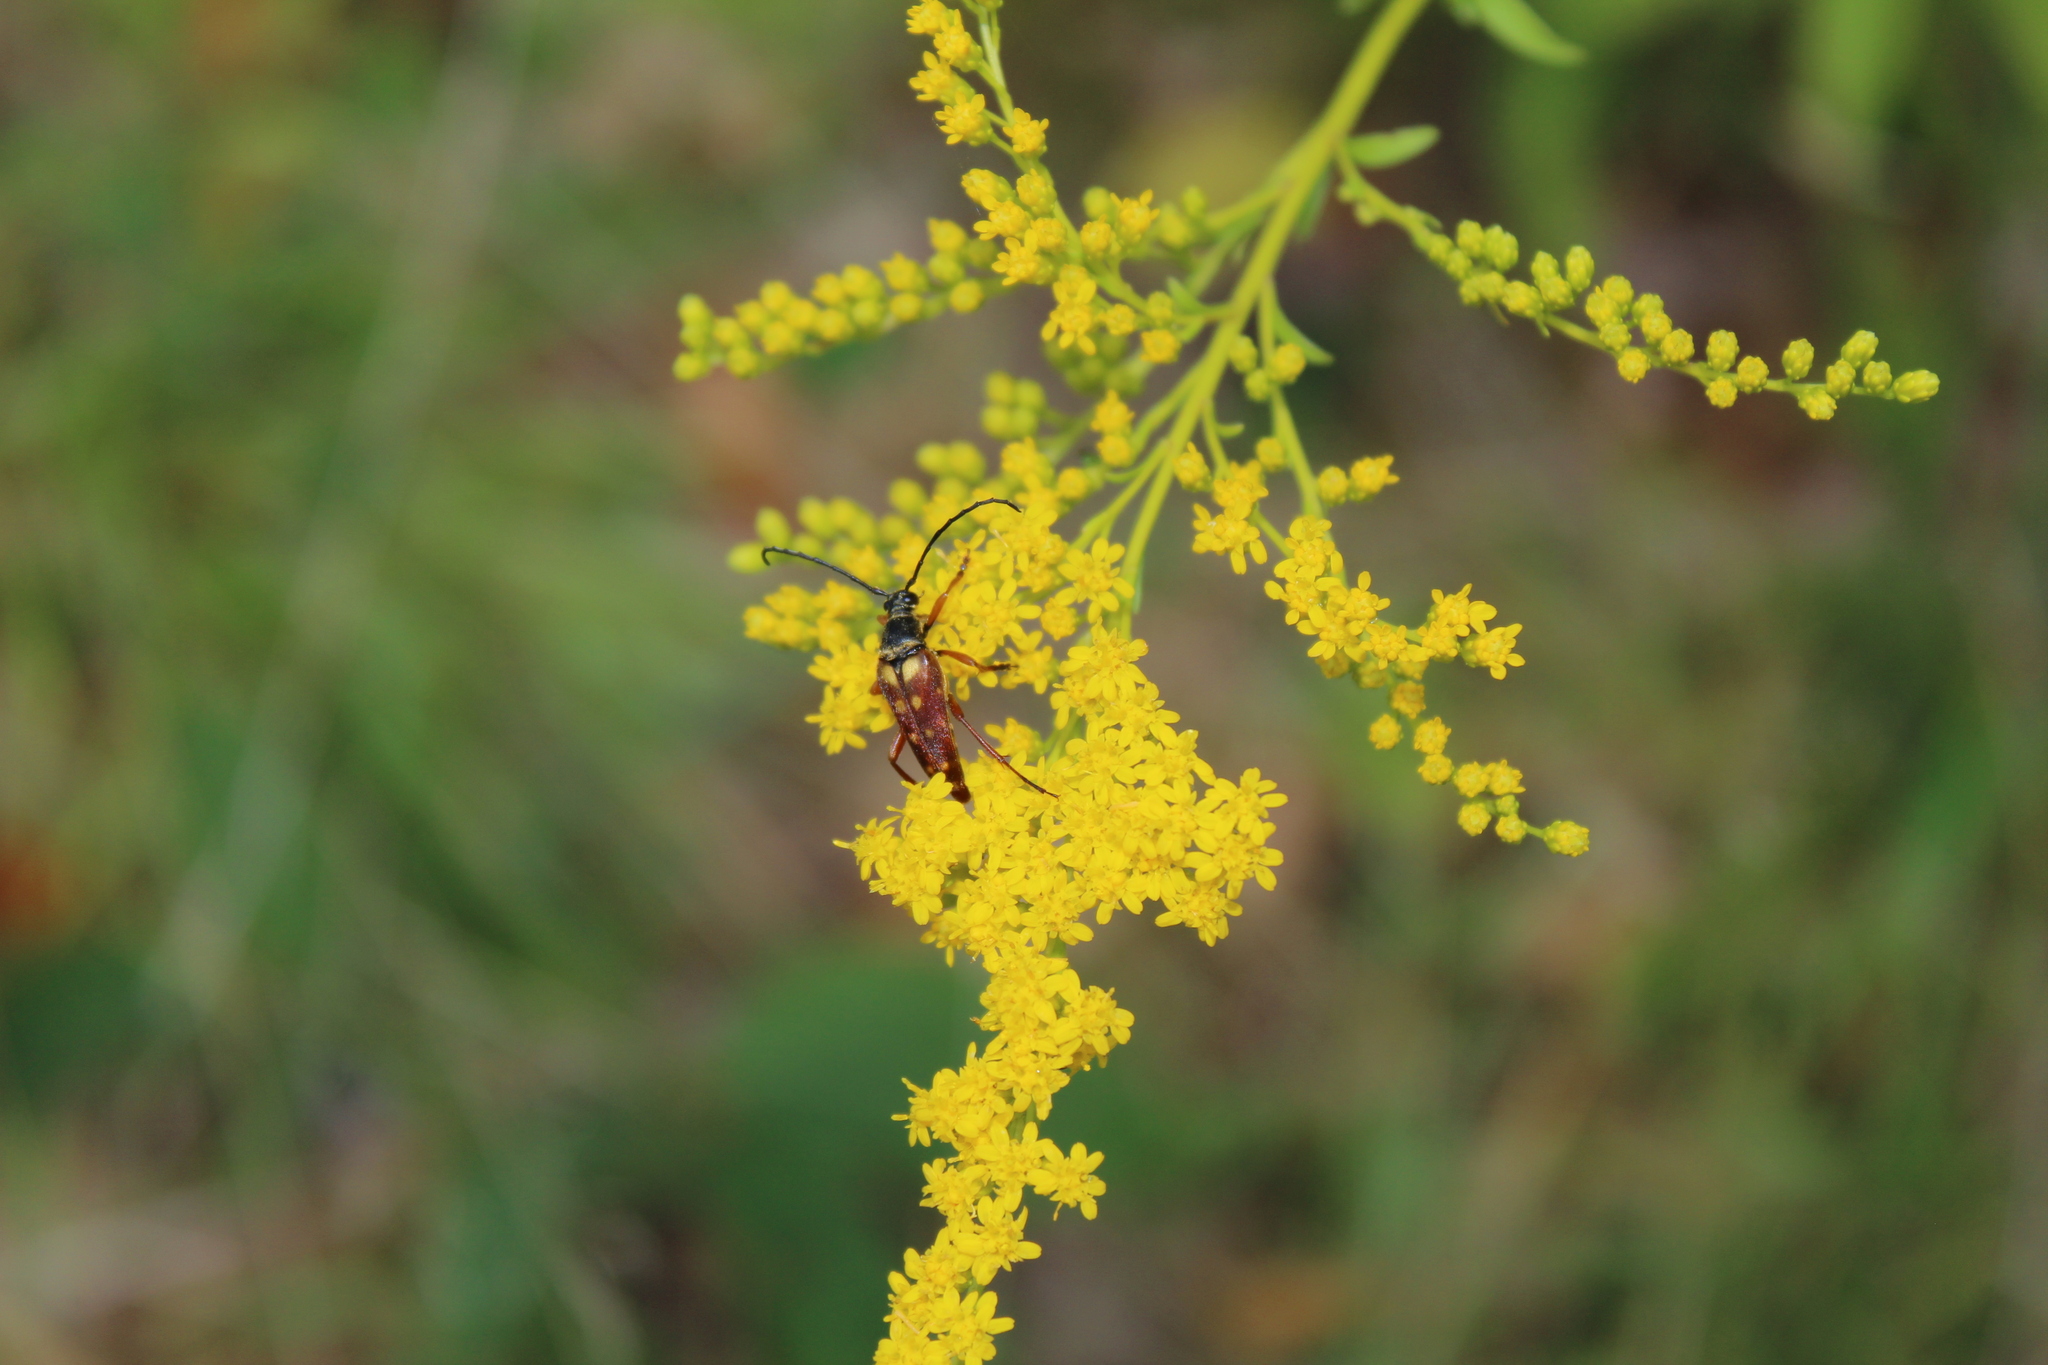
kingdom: Animalia
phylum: Arthropoda
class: Insecta
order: Coleoptera
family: Cerambycidae
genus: Typocerus
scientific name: Typocerus velutinus
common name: Banded longhorn beetle
